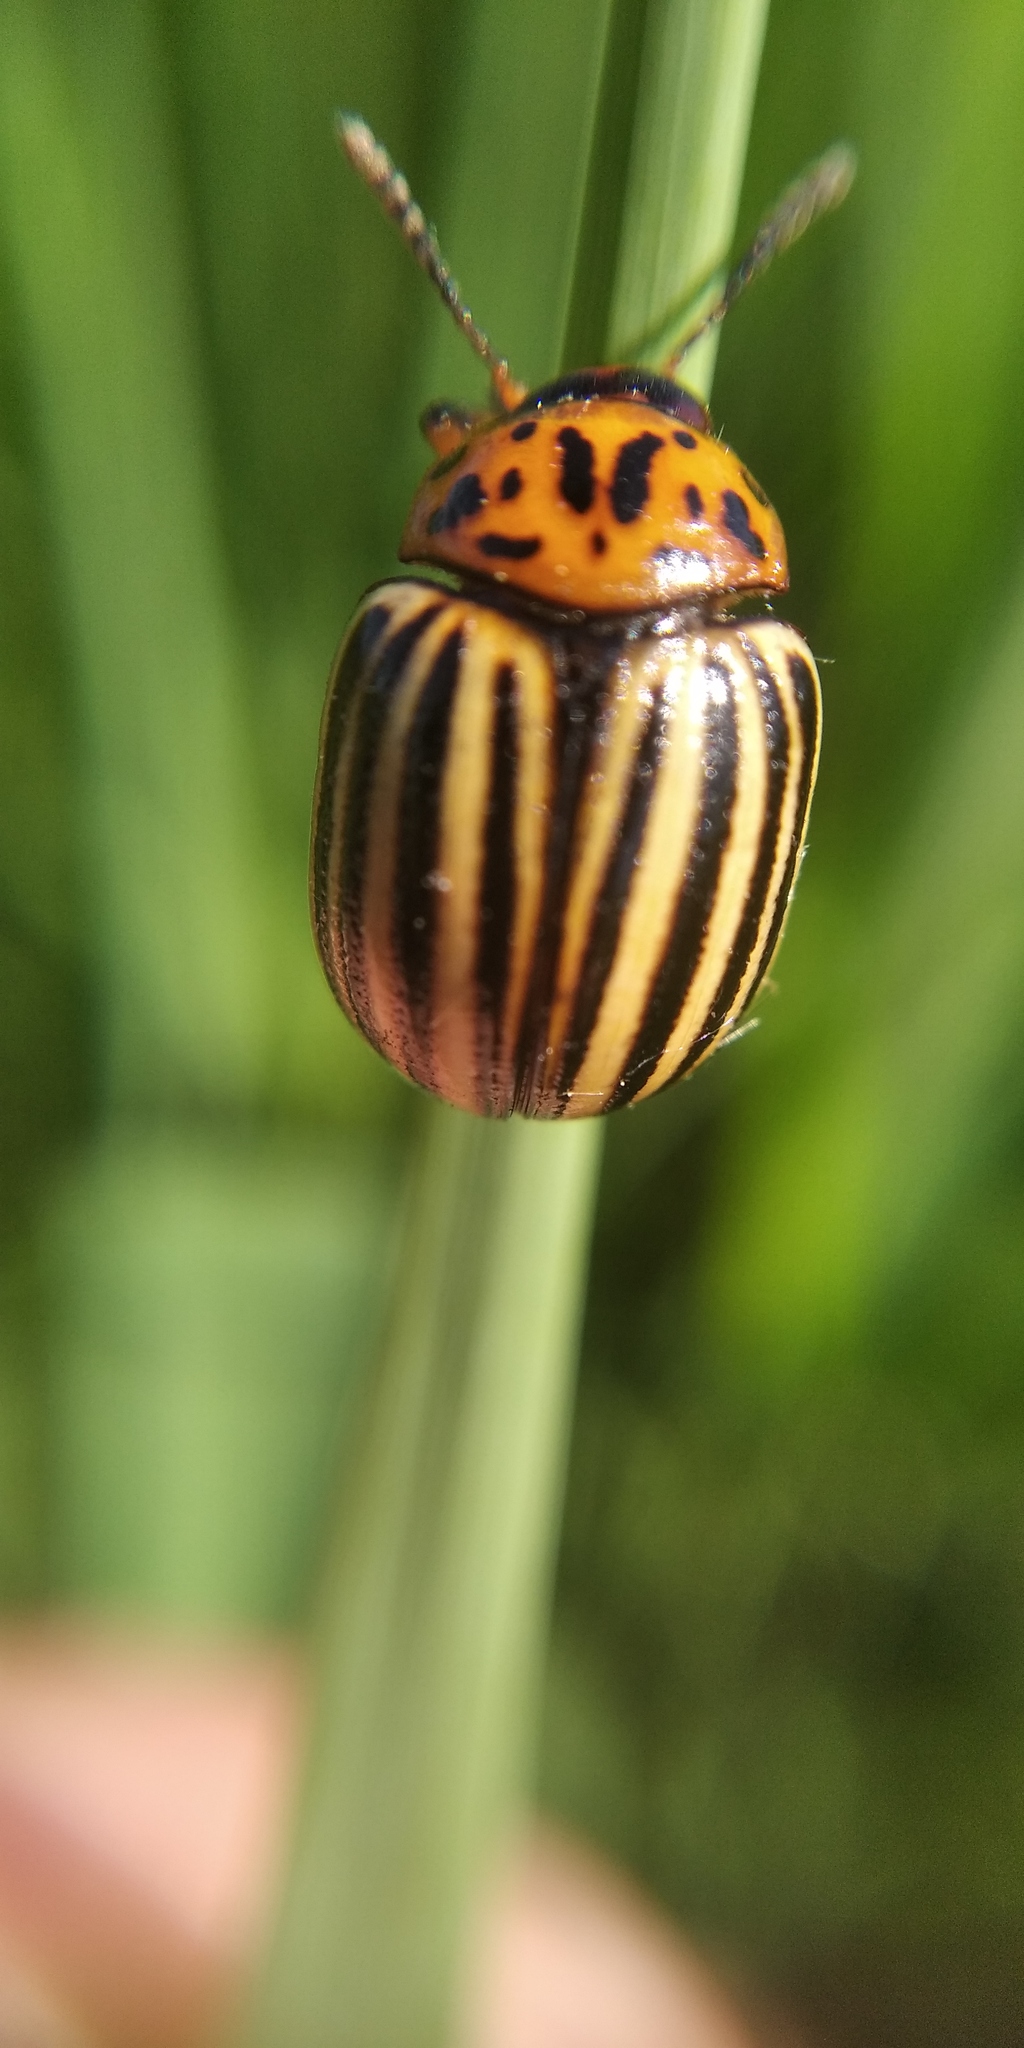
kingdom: Animalia
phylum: Arthropoda
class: Insecta
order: Coleoptera
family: Chrysomelidae
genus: Leptinotarsa
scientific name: Leptinotarsa decemlineata
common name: Colorado potato beetle
